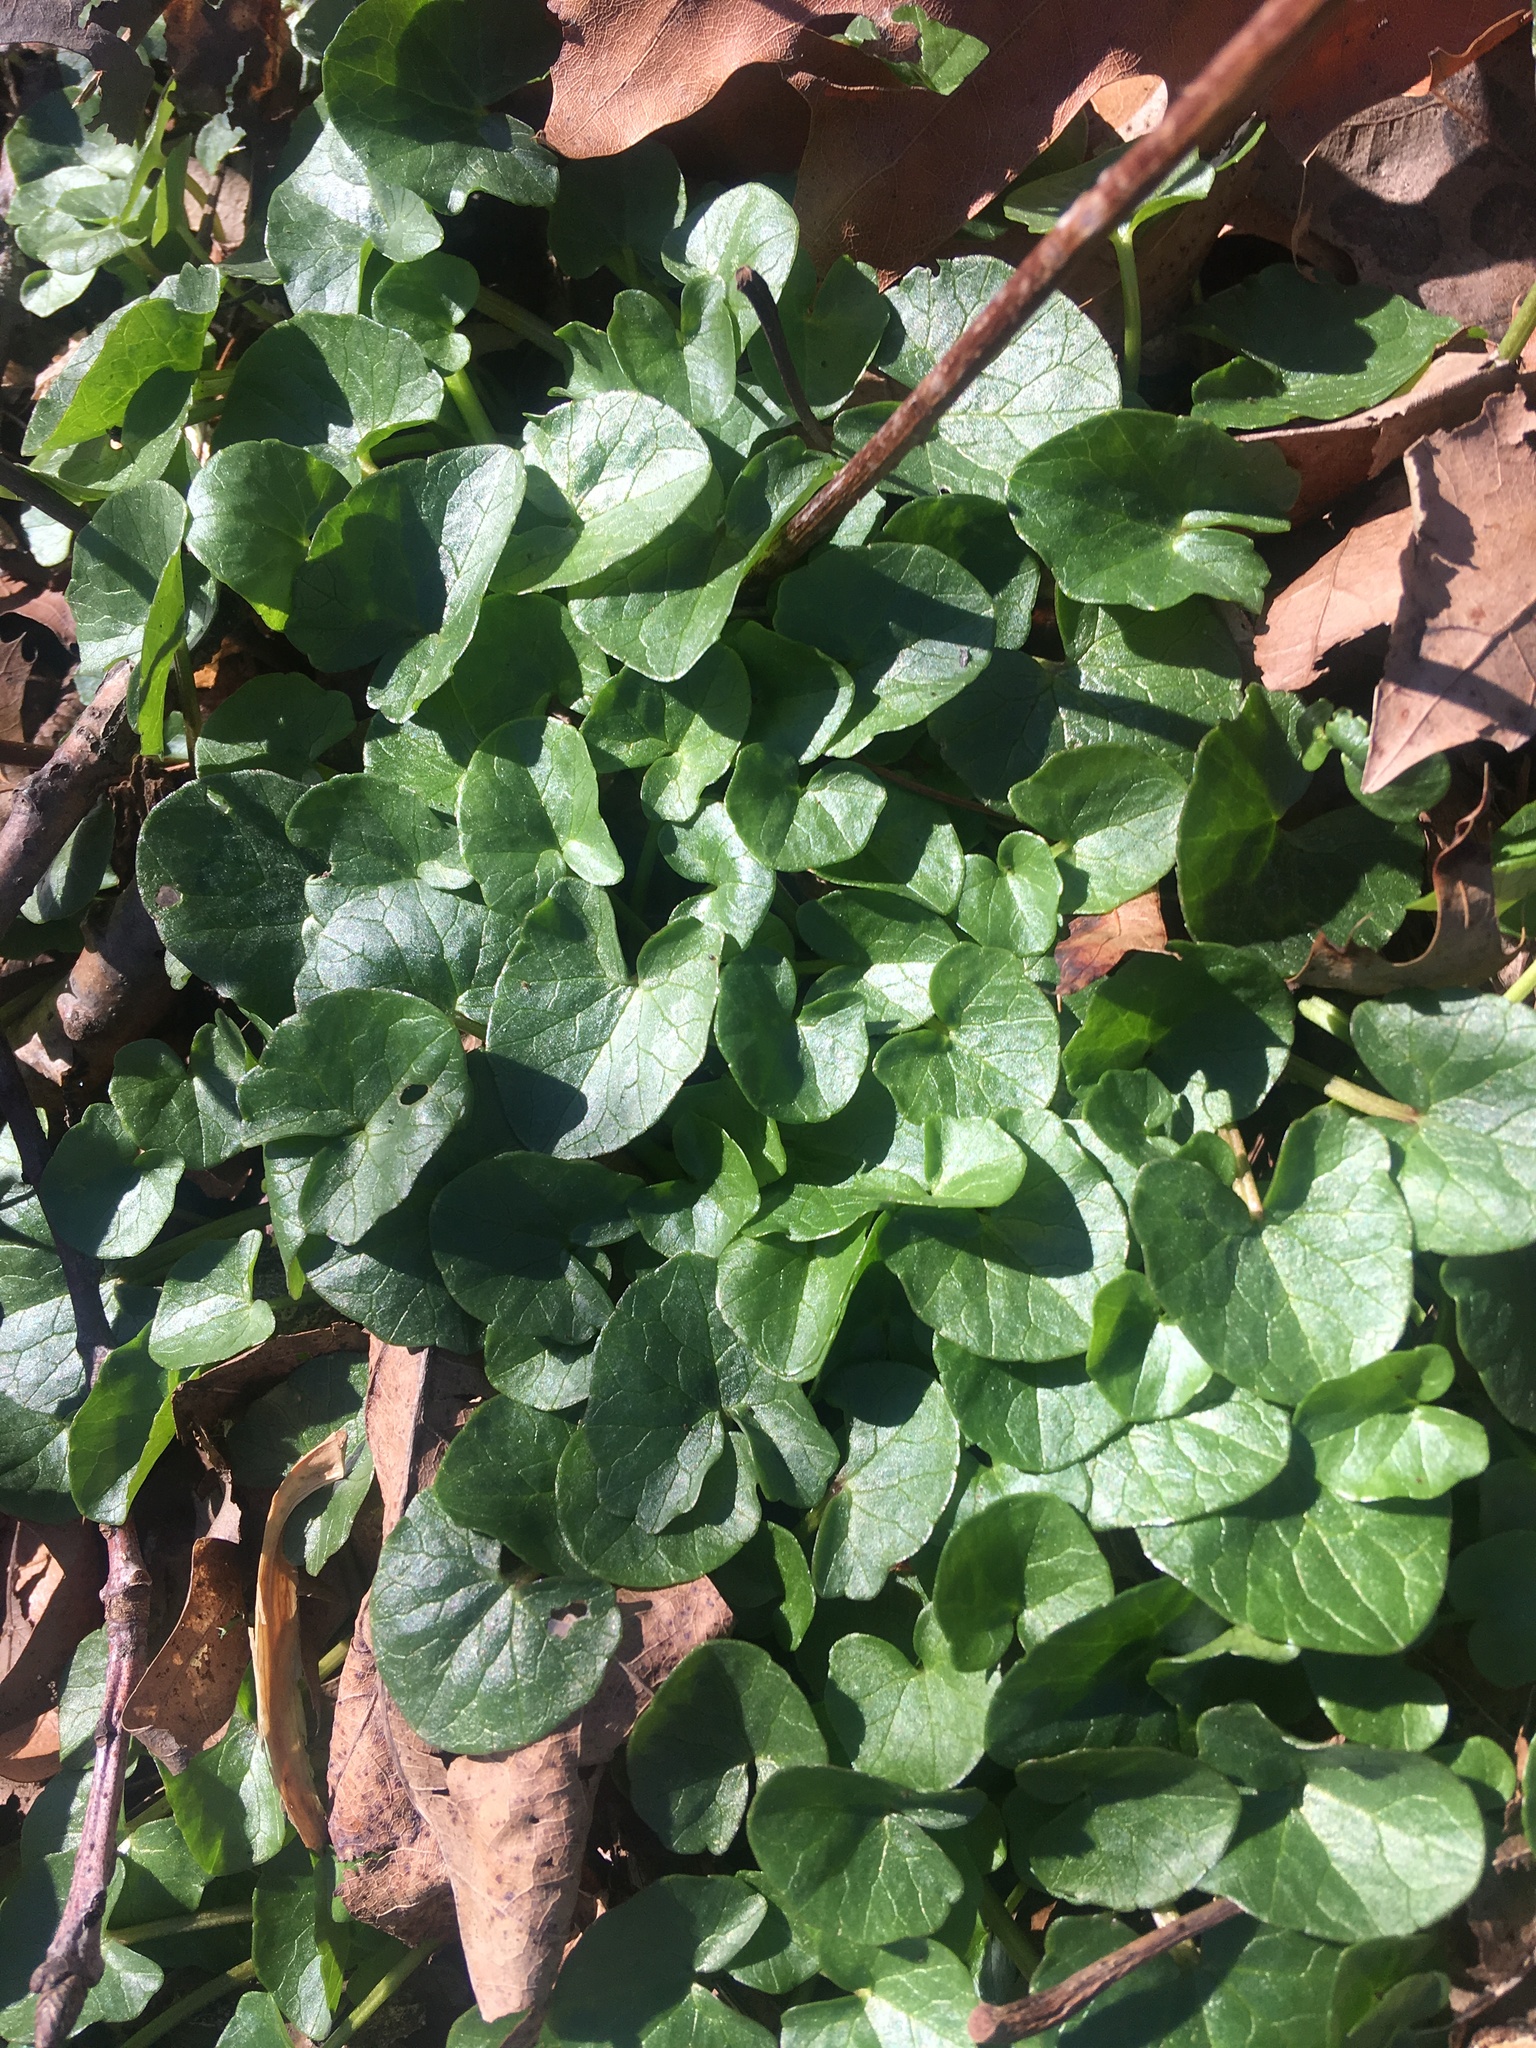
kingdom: Plantae
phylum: Tracheophyta
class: Magnoliopsida
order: Ranunculales
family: Ranunculaceae
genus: Ficaria
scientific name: Ficaria verna
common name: Lesser celandine
